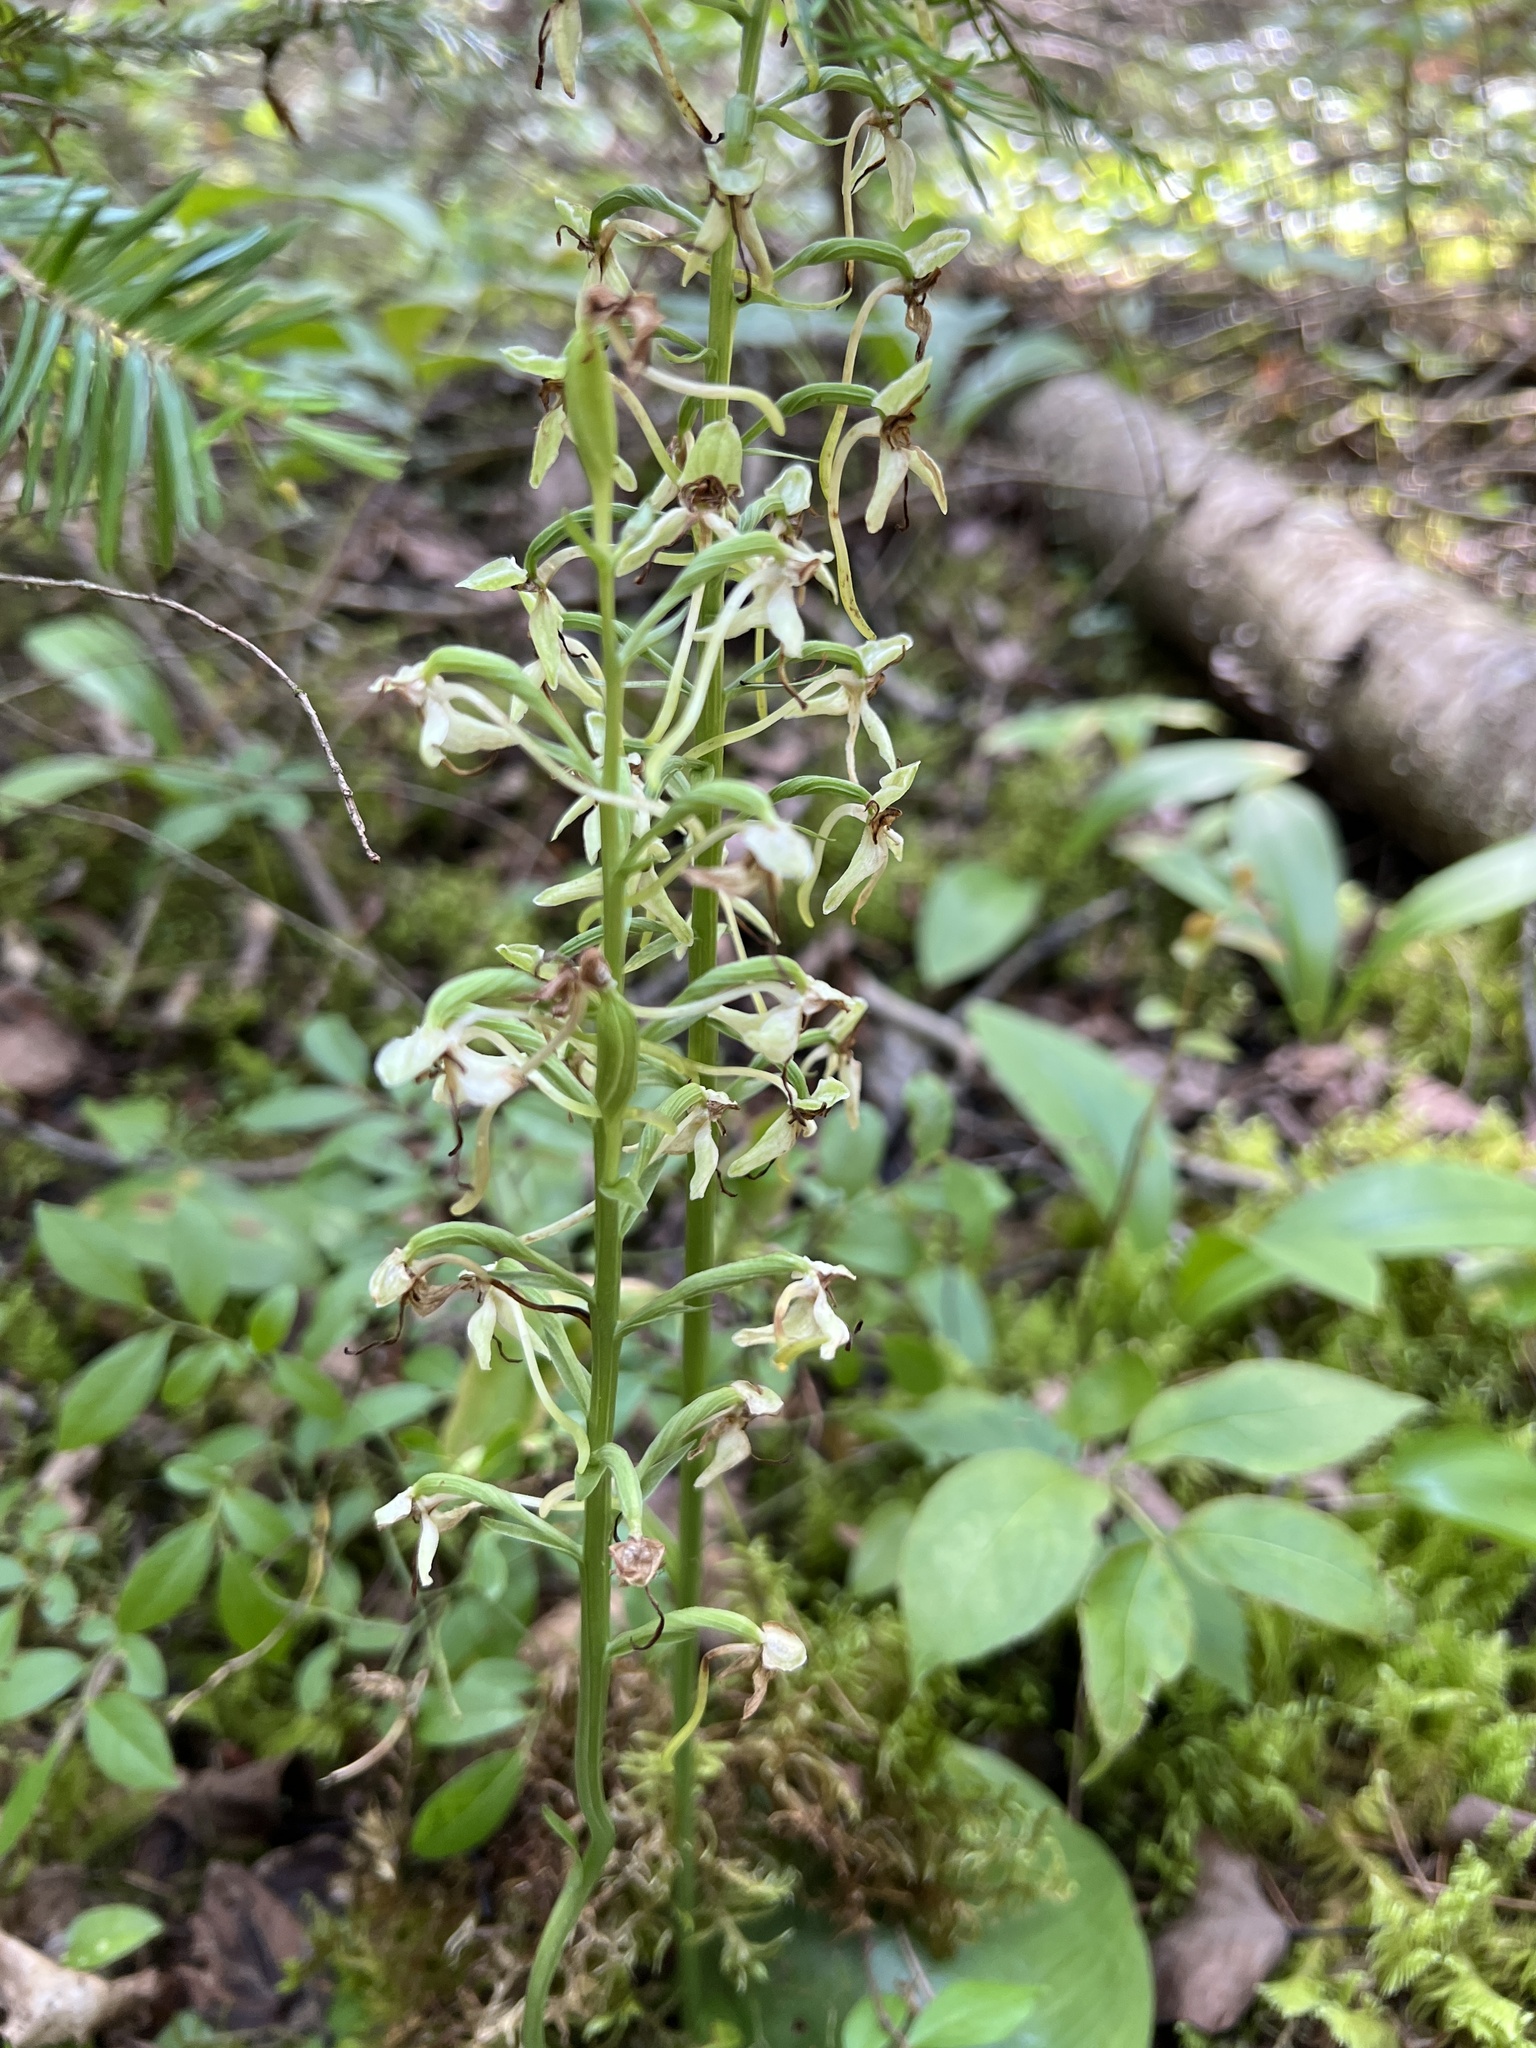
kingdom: Plantae
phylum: Tracheophyta
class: Liliopsida
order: Asparagales
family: Orchidaceae
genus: Platanthera
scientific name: Platanthera orbiculata
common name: Large round-leaved orchid
